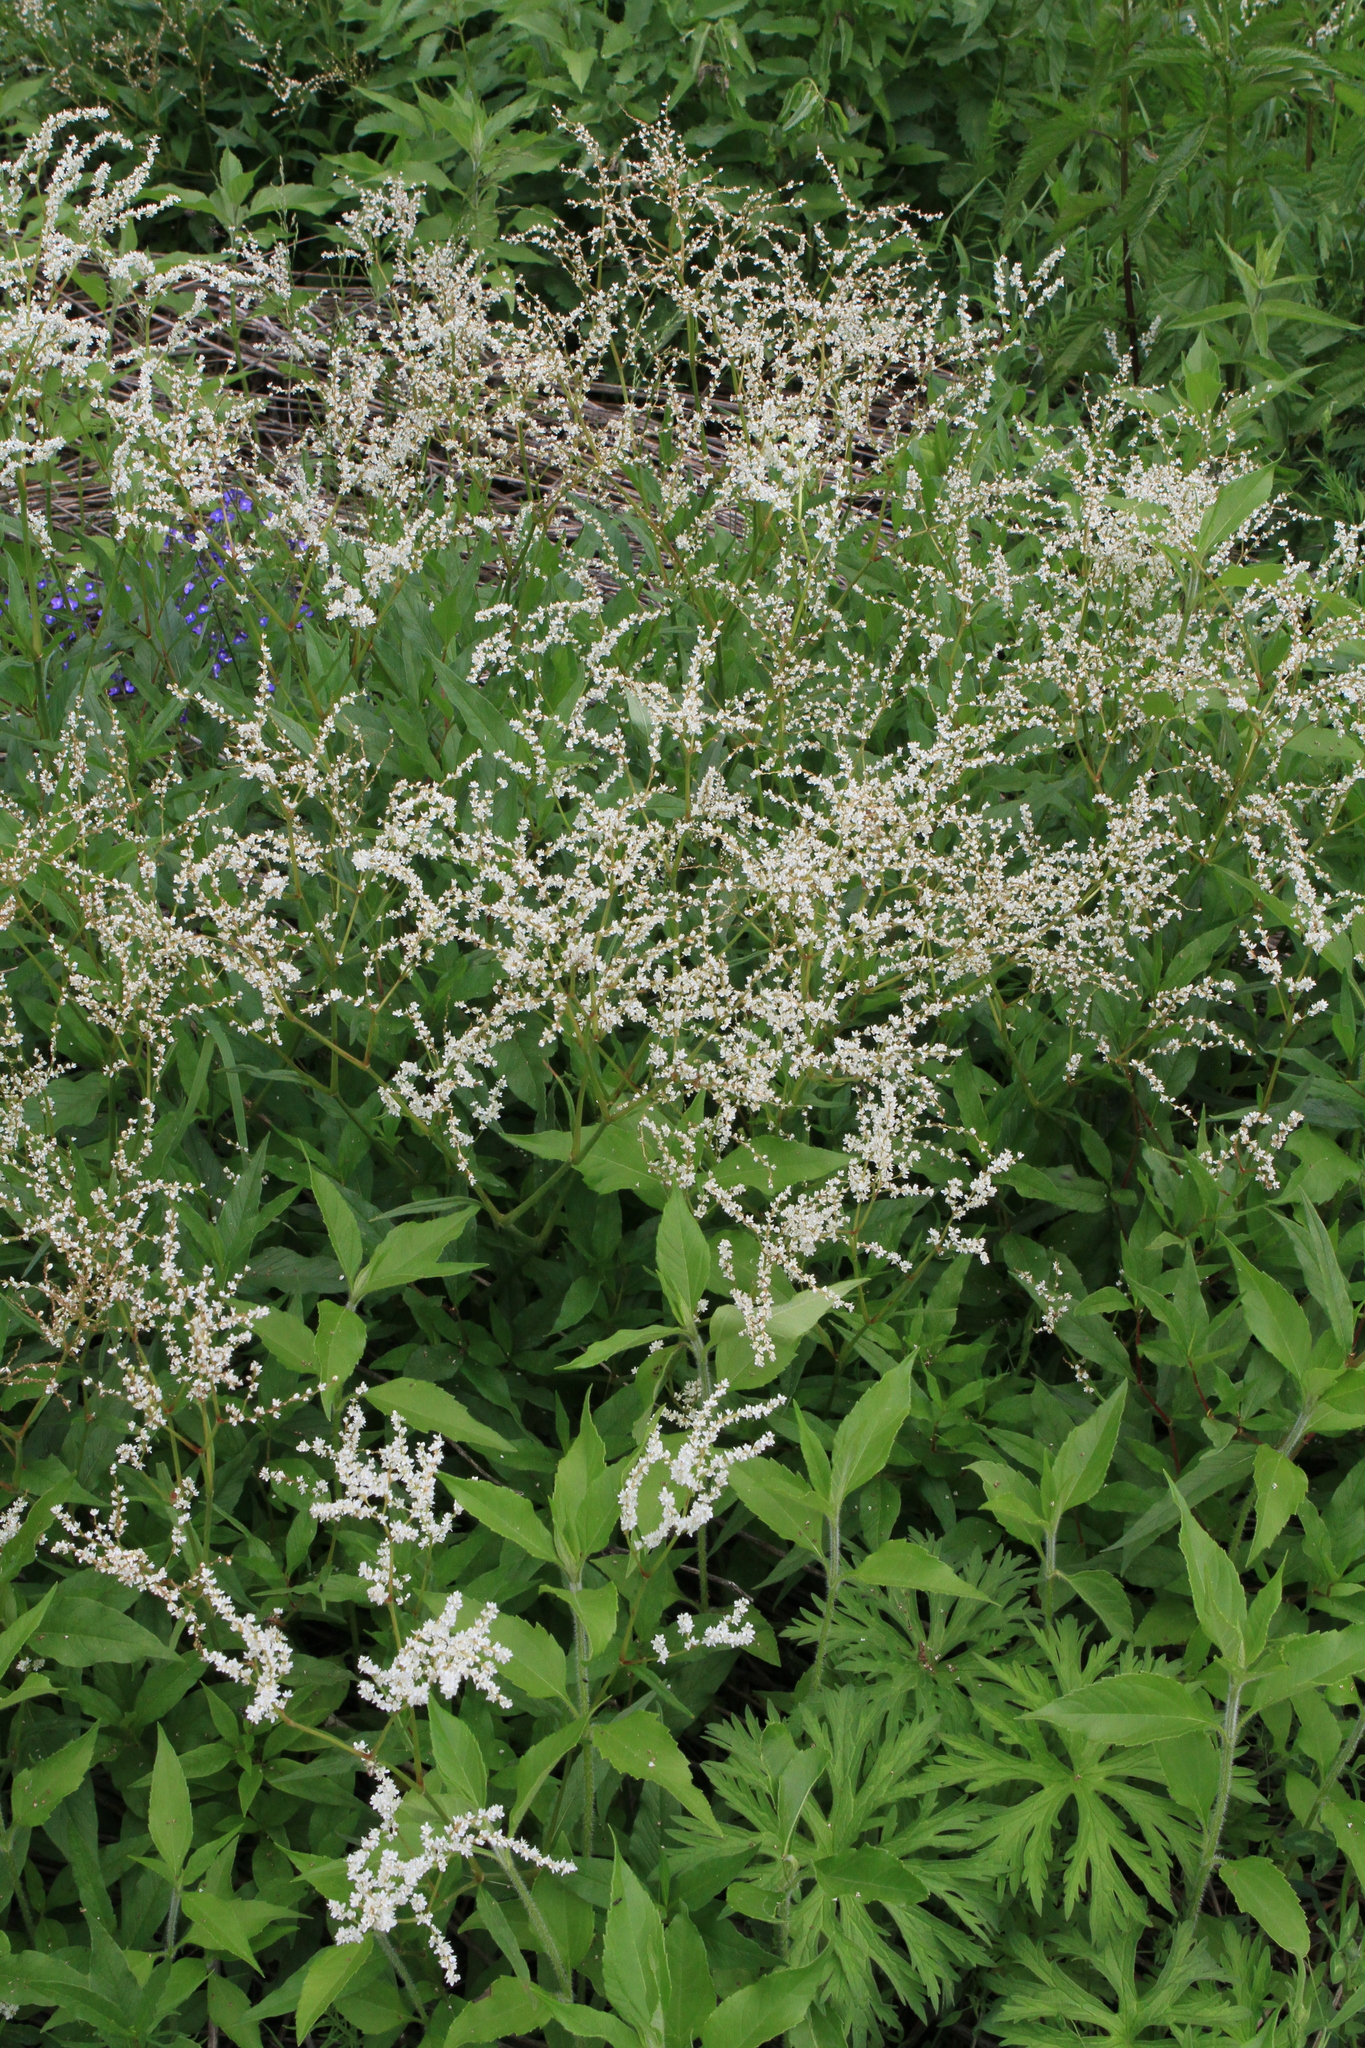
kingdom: Plantae
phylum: Tracheophyta
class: Magnoliopsida
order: Caryophyllales
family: Polygonaceae
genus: Koenigia
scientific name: Koenigia alpina
